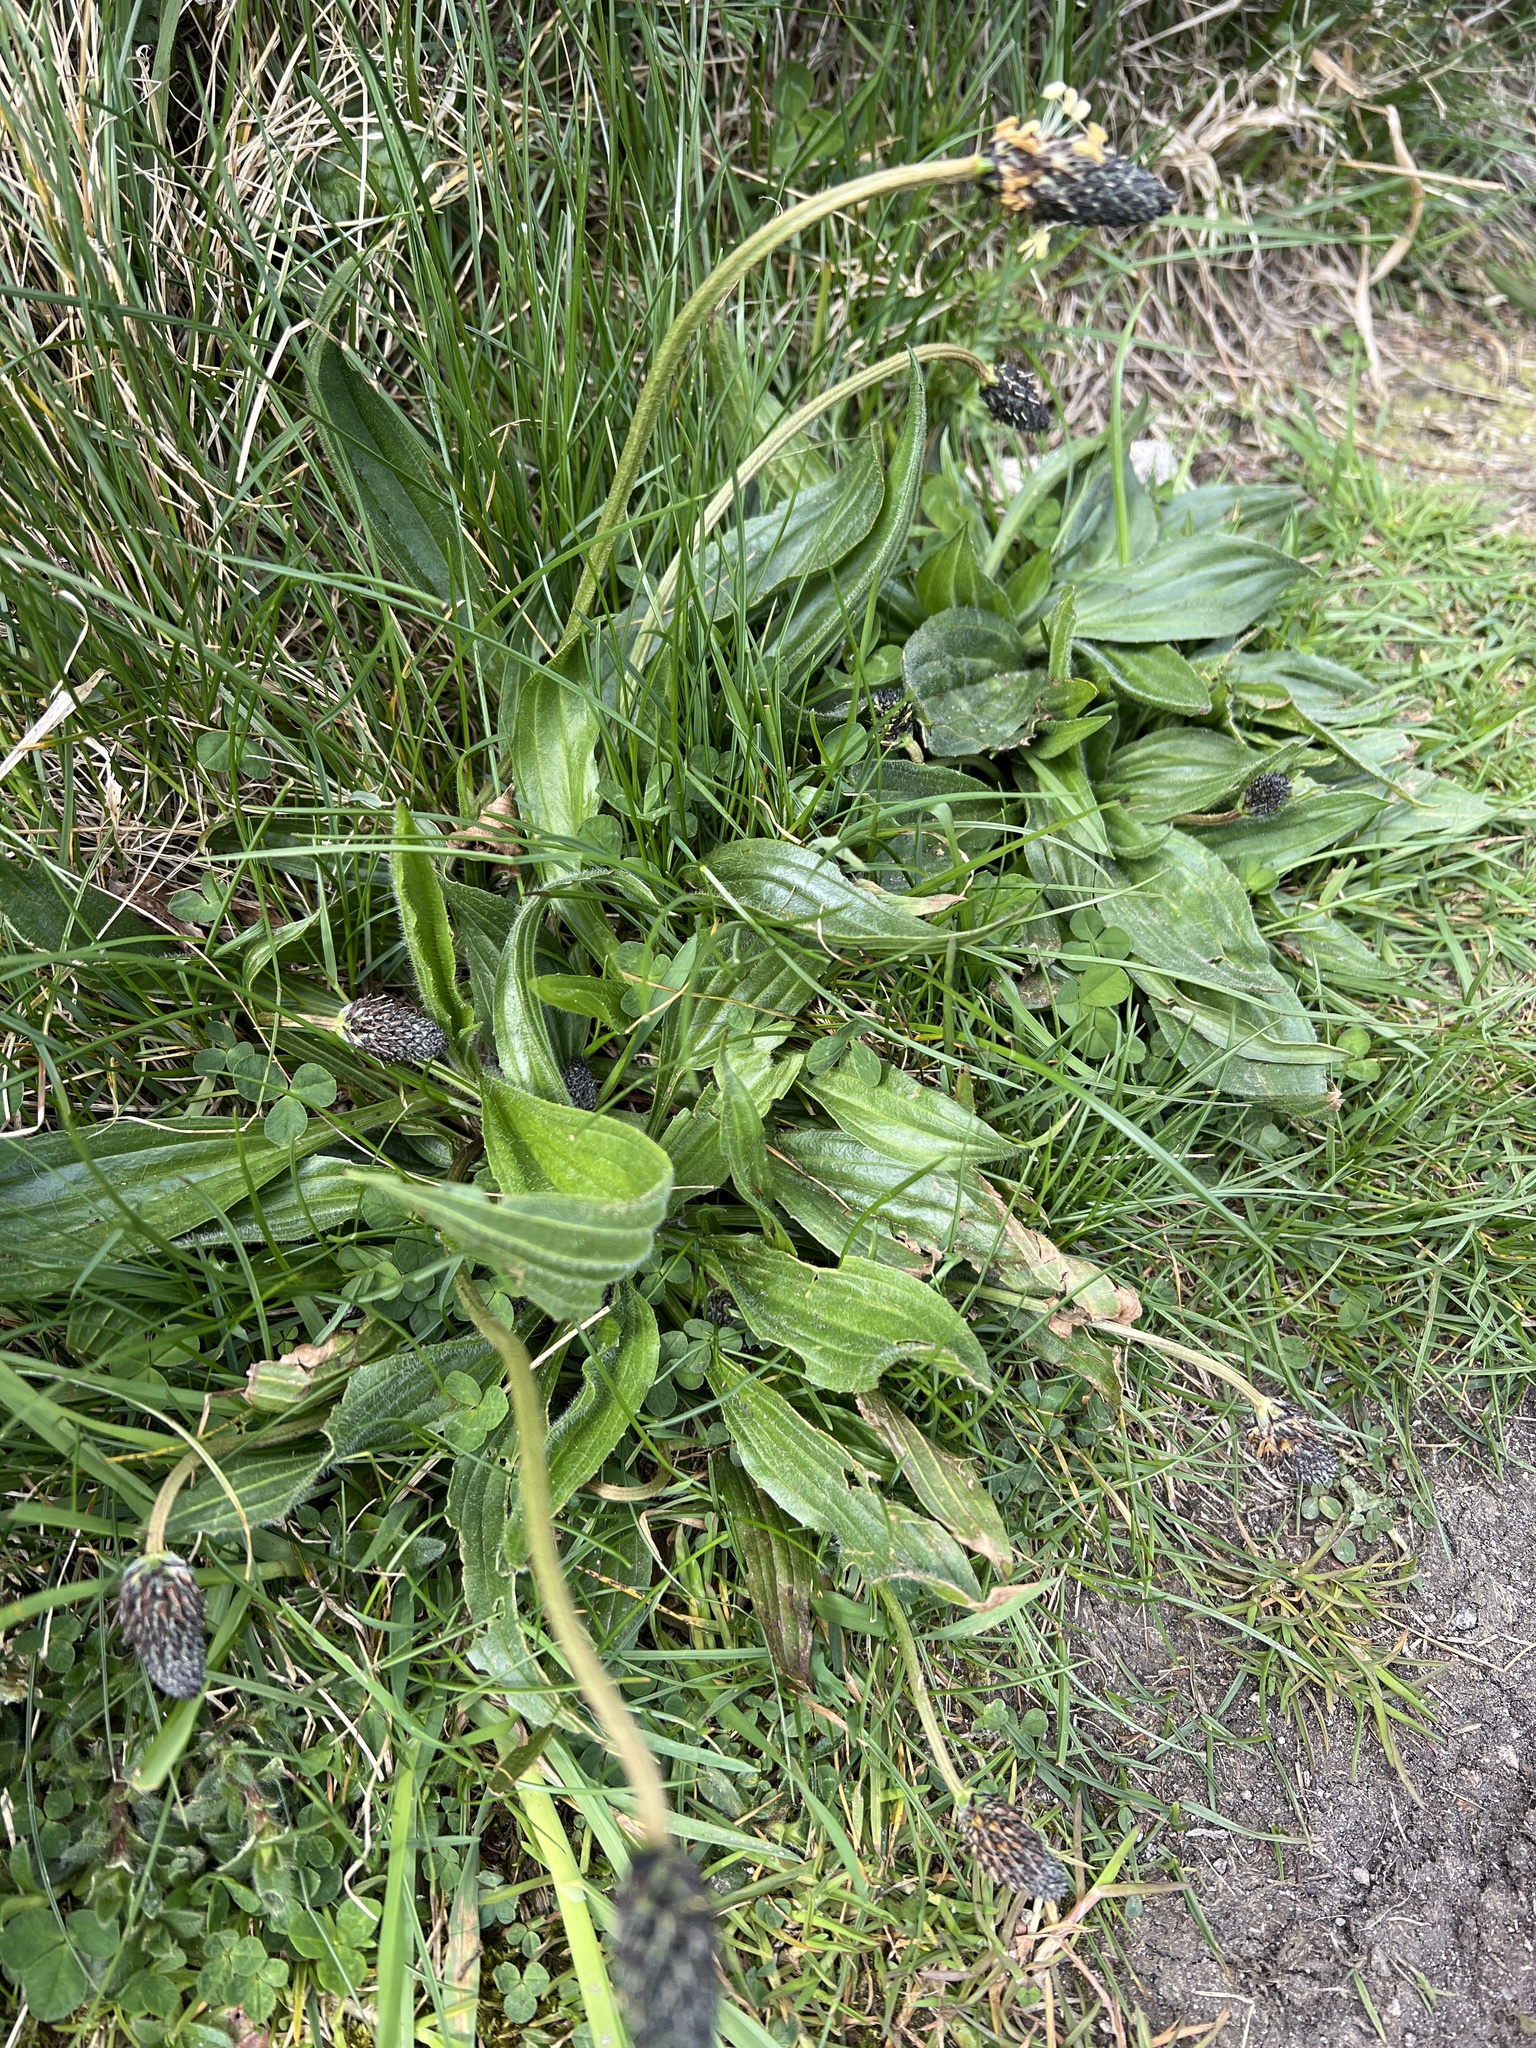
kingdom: Plantae
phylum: Tracheophyta
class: Magnoliopsida
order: Lamiales
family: Plantaginaceae
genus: Plantago
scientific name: Plantago lanceolata
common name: Ribwort plantain
